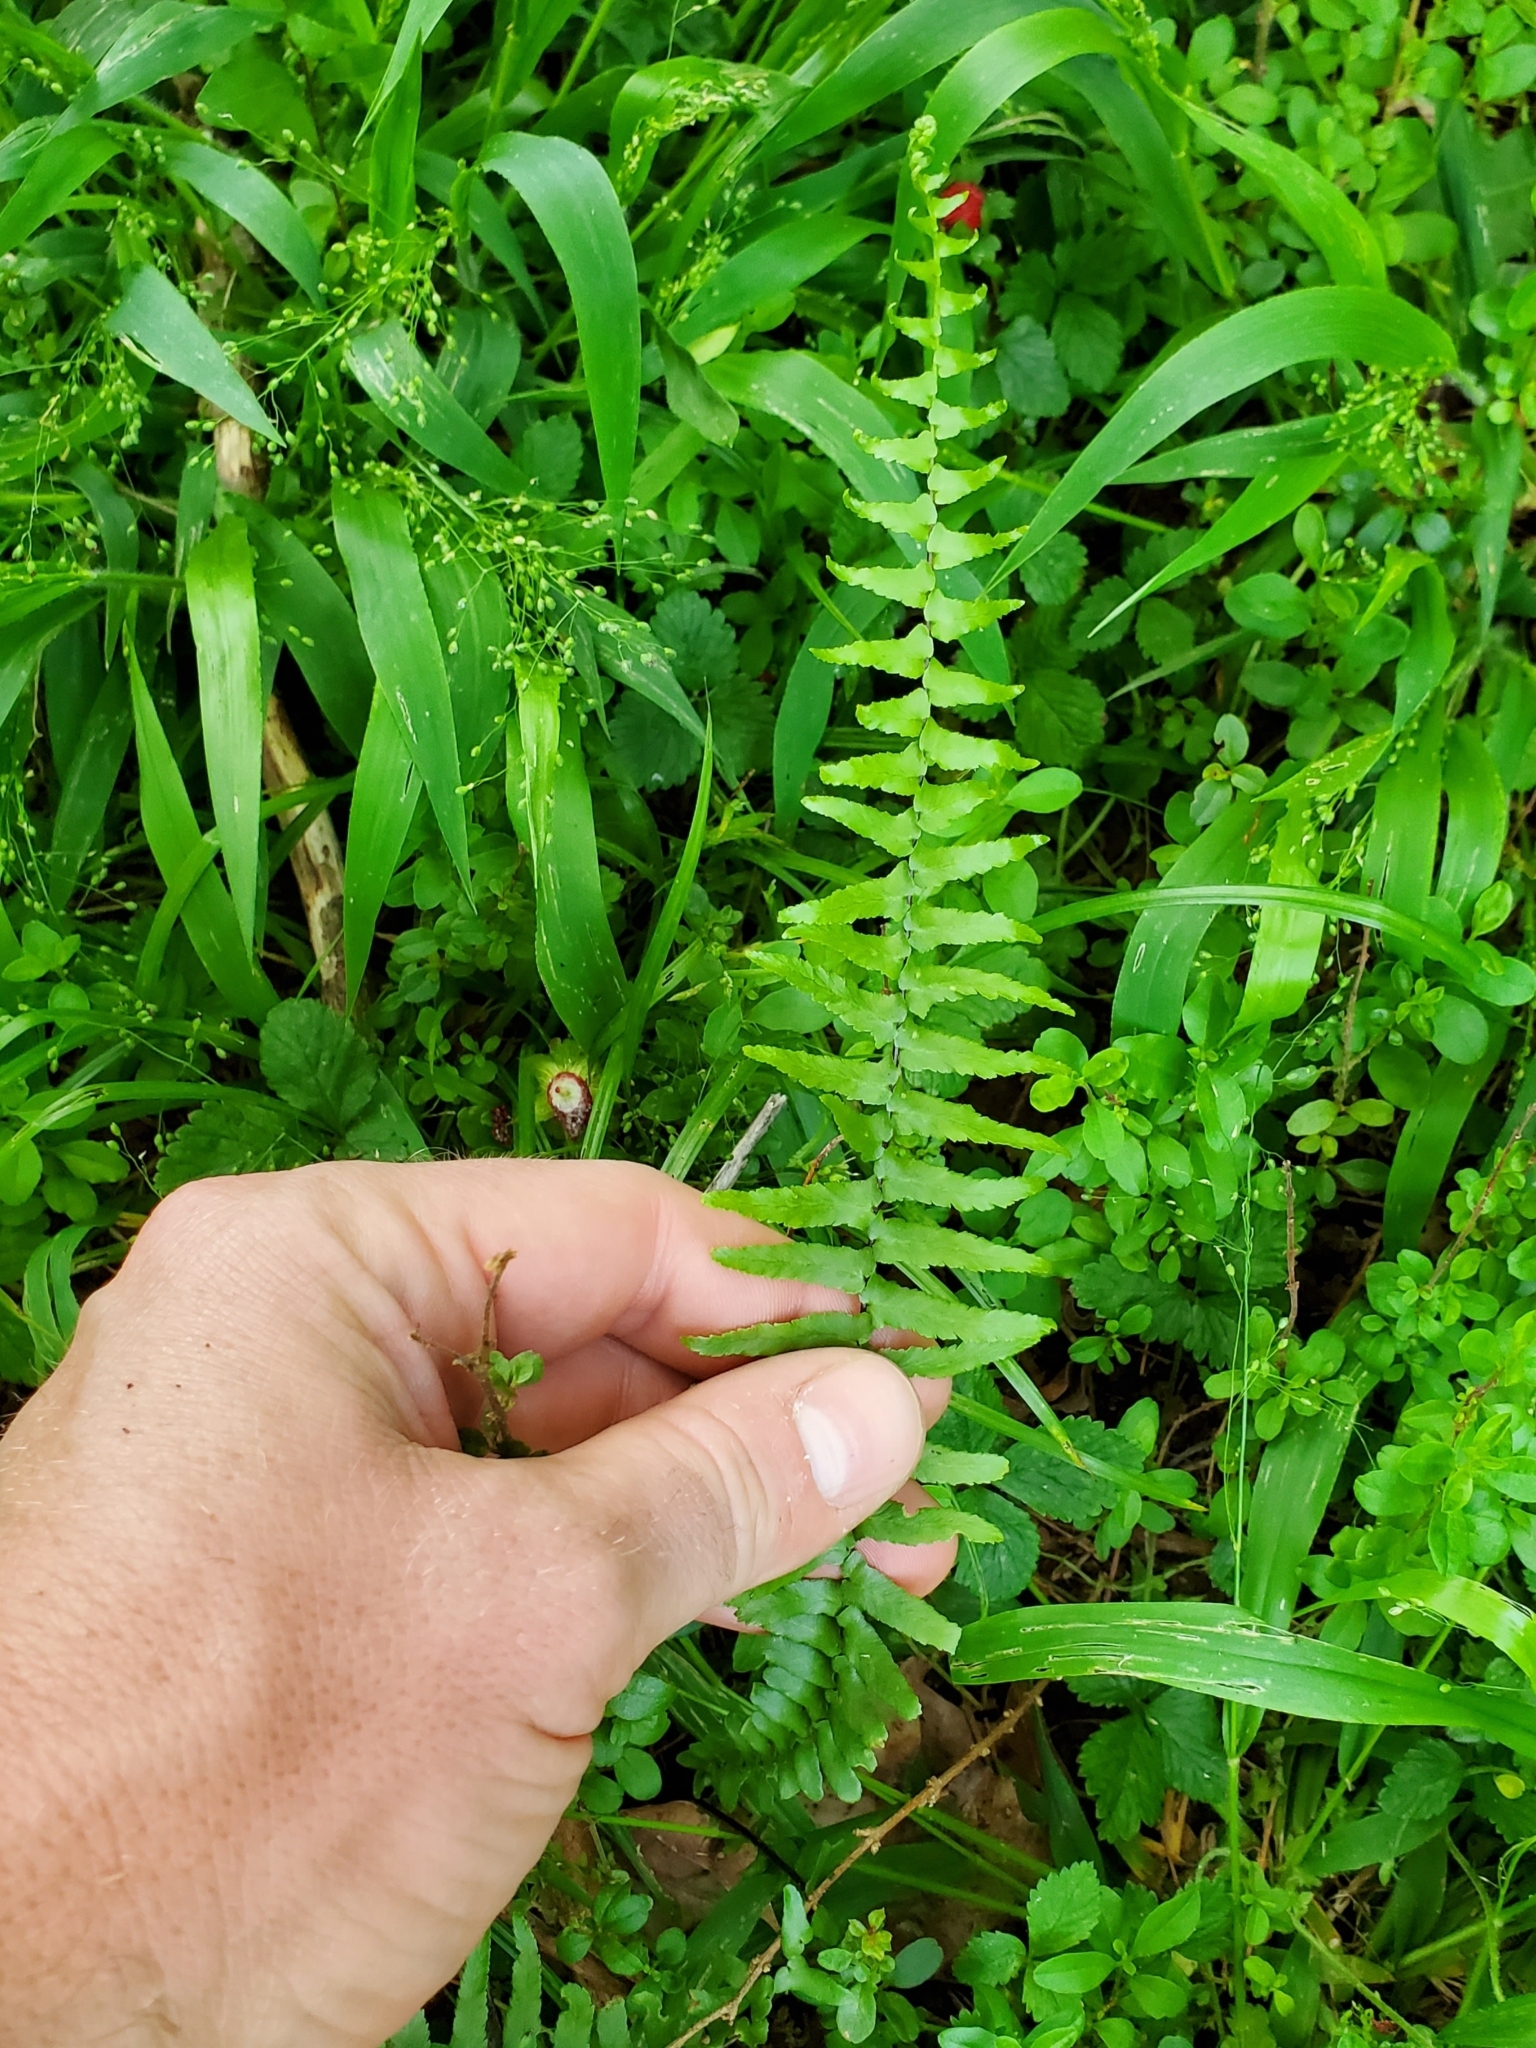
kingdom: Plantae
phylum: Tracheophyta
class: Polypodiopsida
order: Polypodiales
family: Aspleniaceae
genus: Asplenium
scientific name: Asplenium platyneuron
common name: Ebony spleenwort
